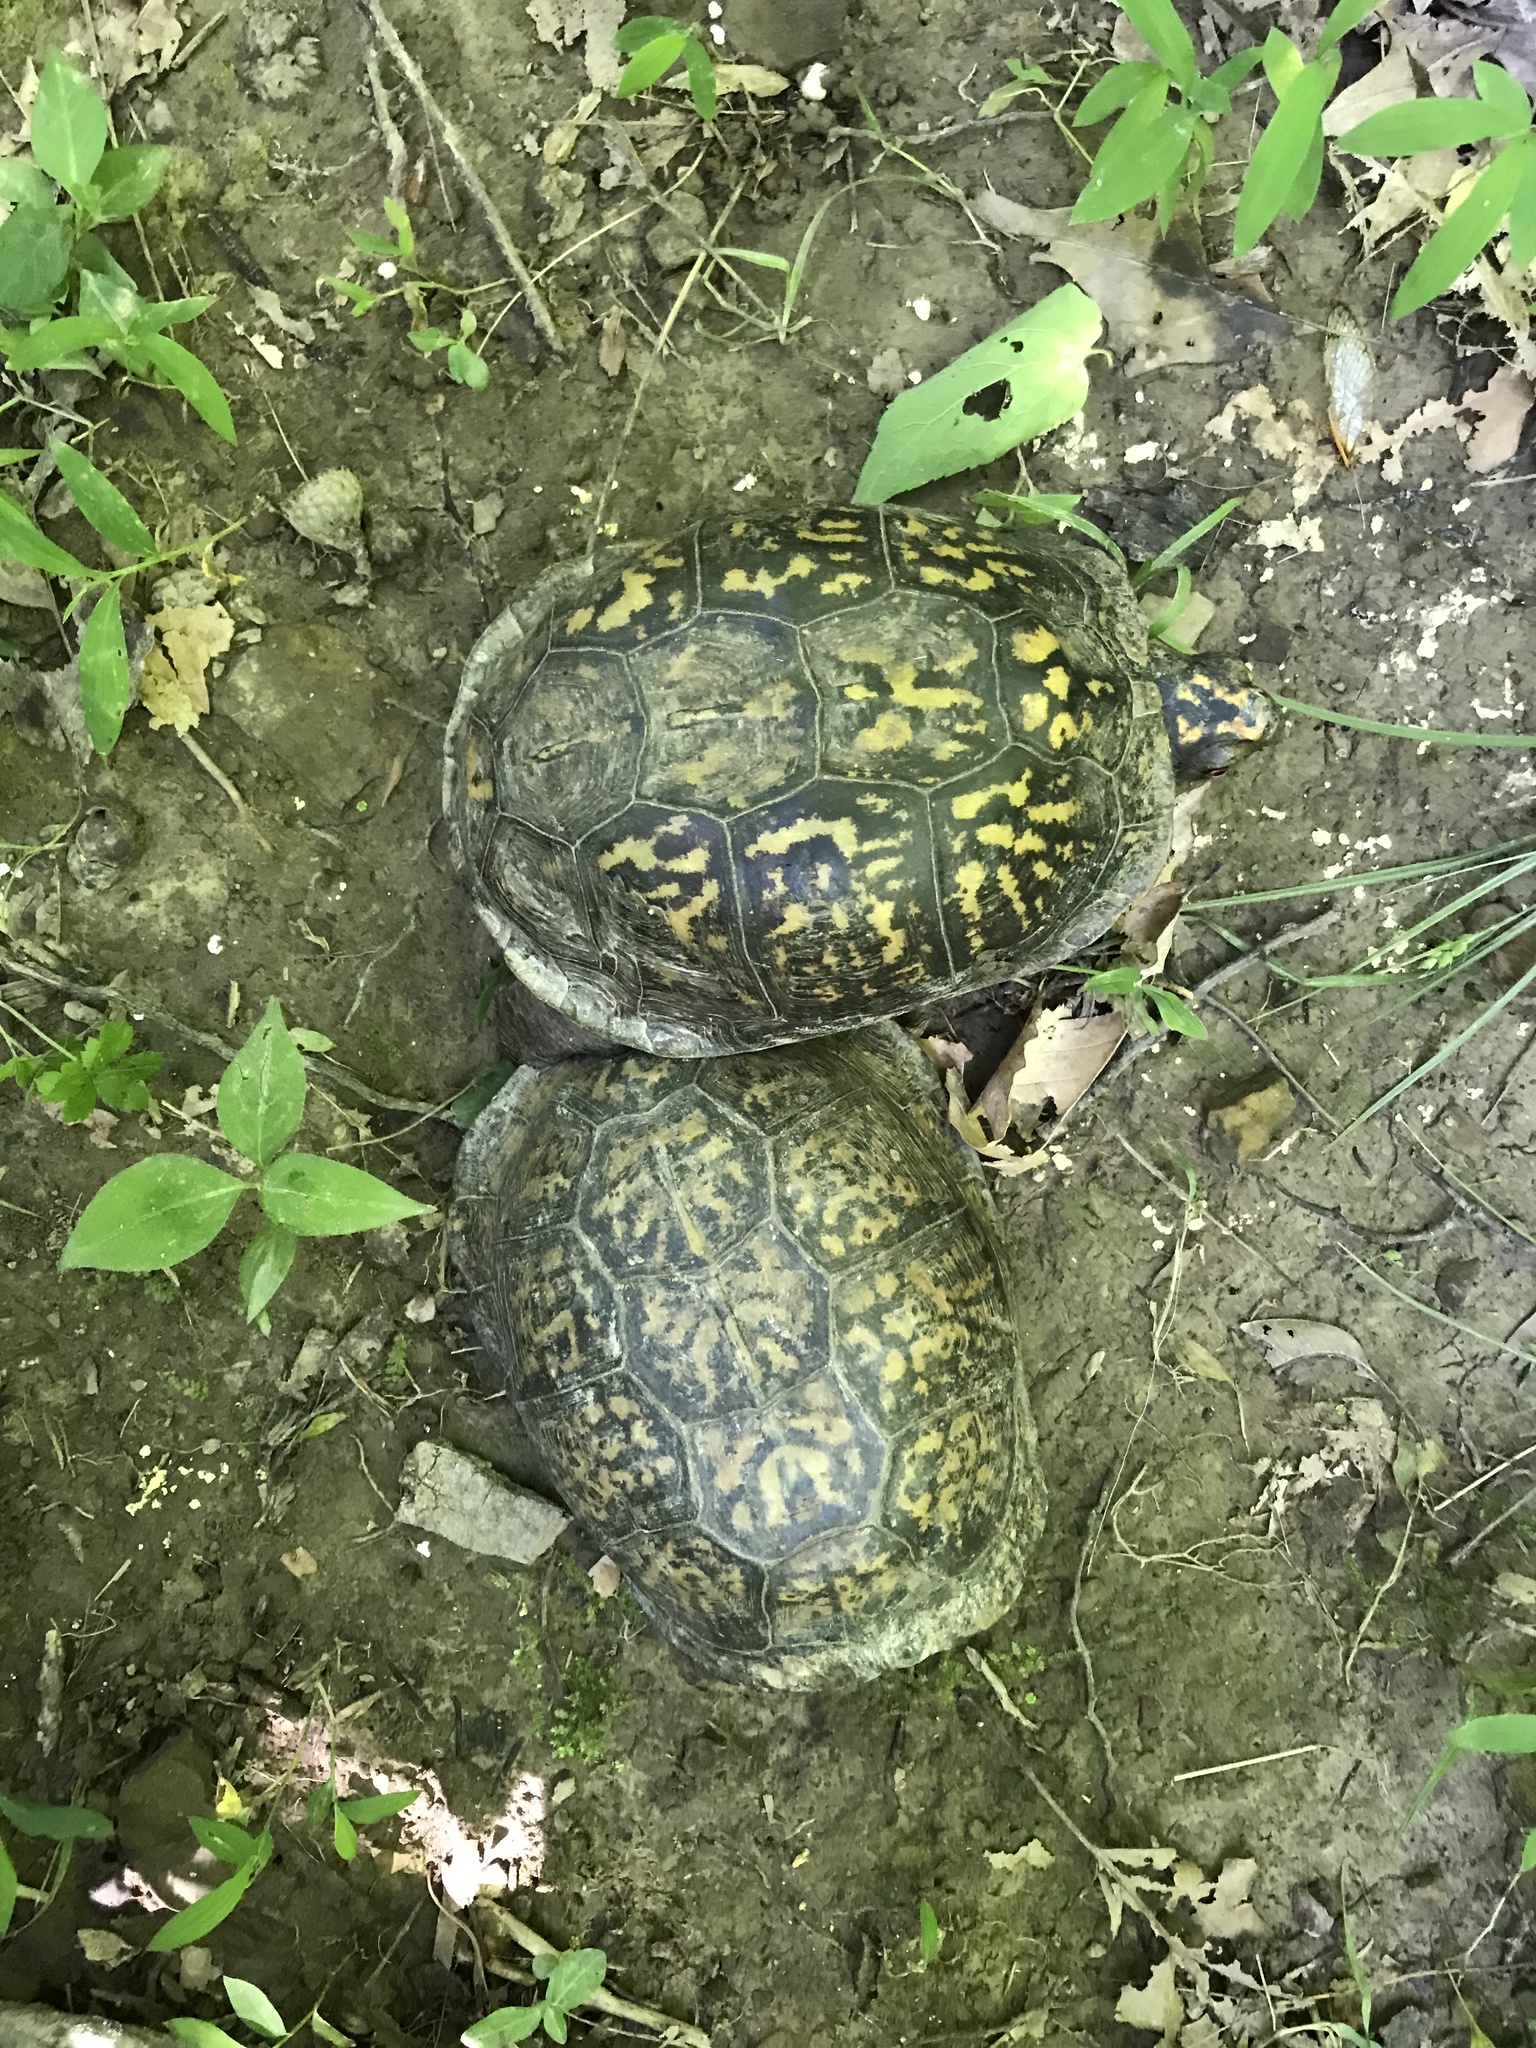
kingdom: Animalia
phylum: Chordata
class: Testudines
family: Emydidae
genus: Terrapene
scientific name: Terrapene carolina
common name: Common box turtle
